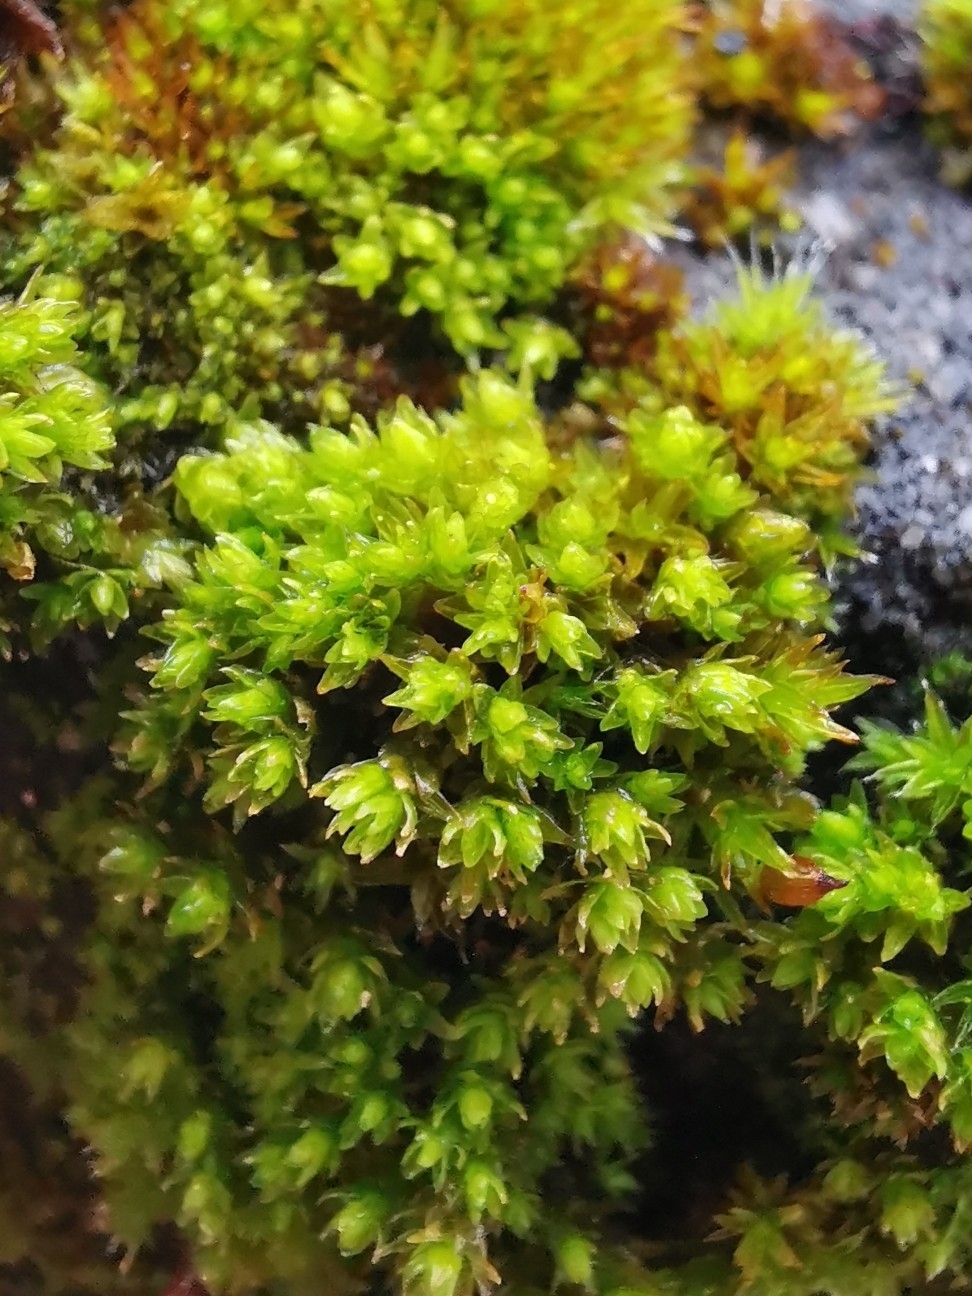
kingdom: Plantae
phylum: Bryophyta
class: Bryopsida
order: Orthotrichales
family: Orthotrichaceae
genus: Nyholmiella
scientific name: Nyholmiella obtusifolia
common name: Blunt-leaved bristle-moss
